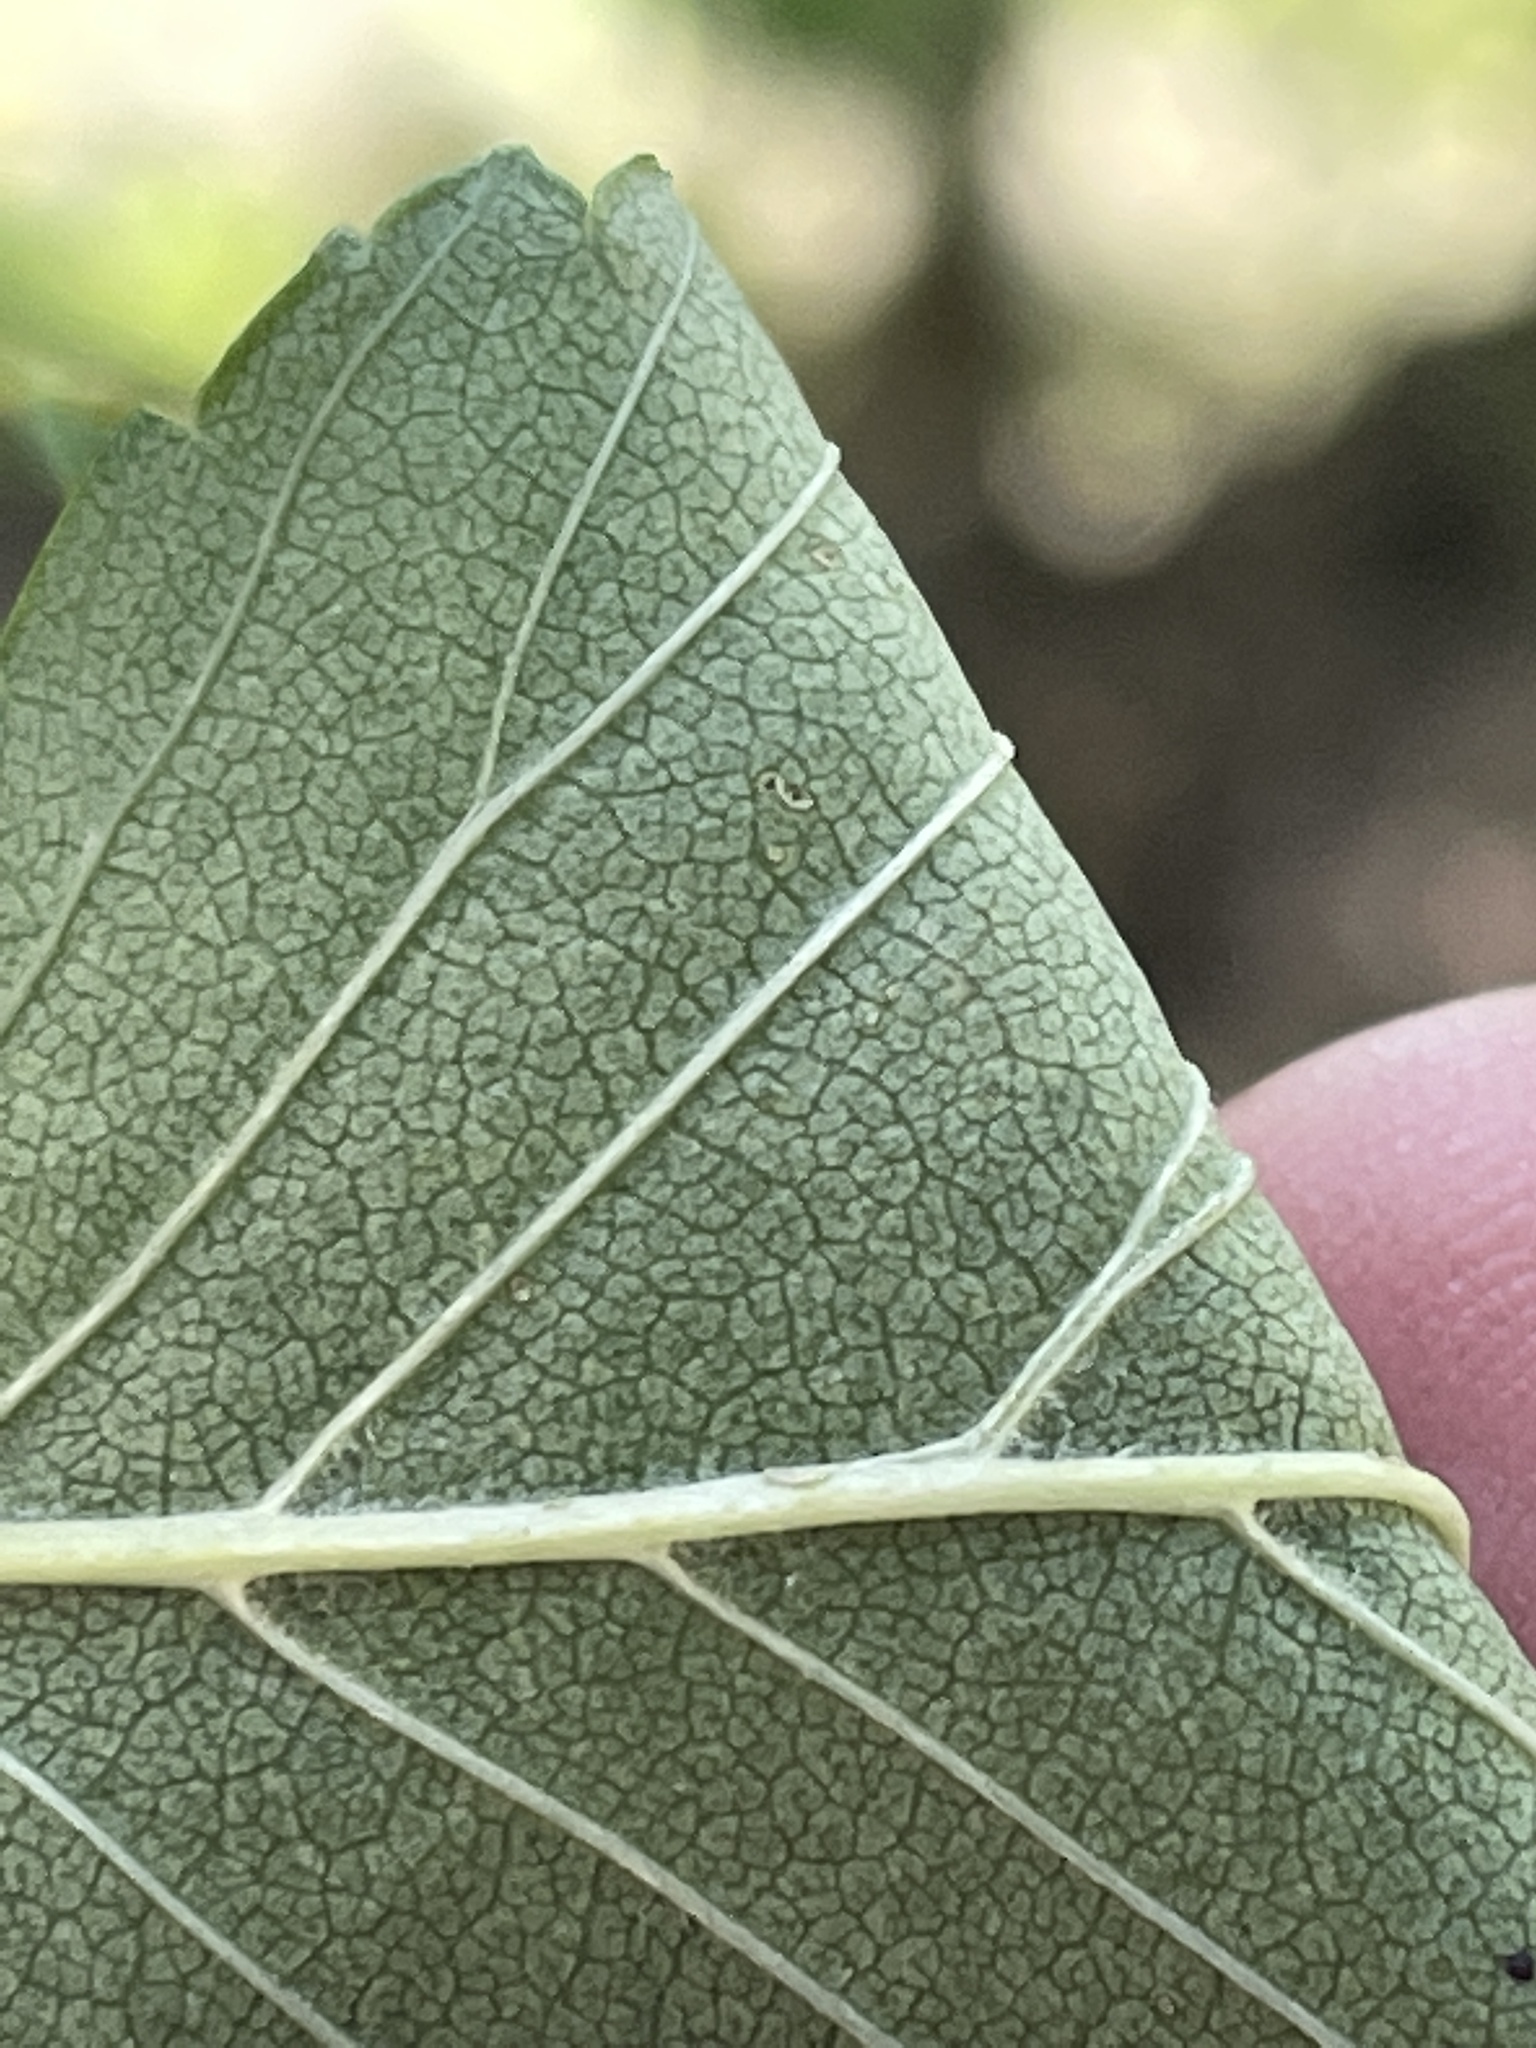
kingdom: Plantae
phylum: Tracheophyta
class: Magnoliopsida
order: Rosales
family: Ulmaceae
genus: Ulmus
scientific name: Ulmus pumila
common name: Siberian elm
